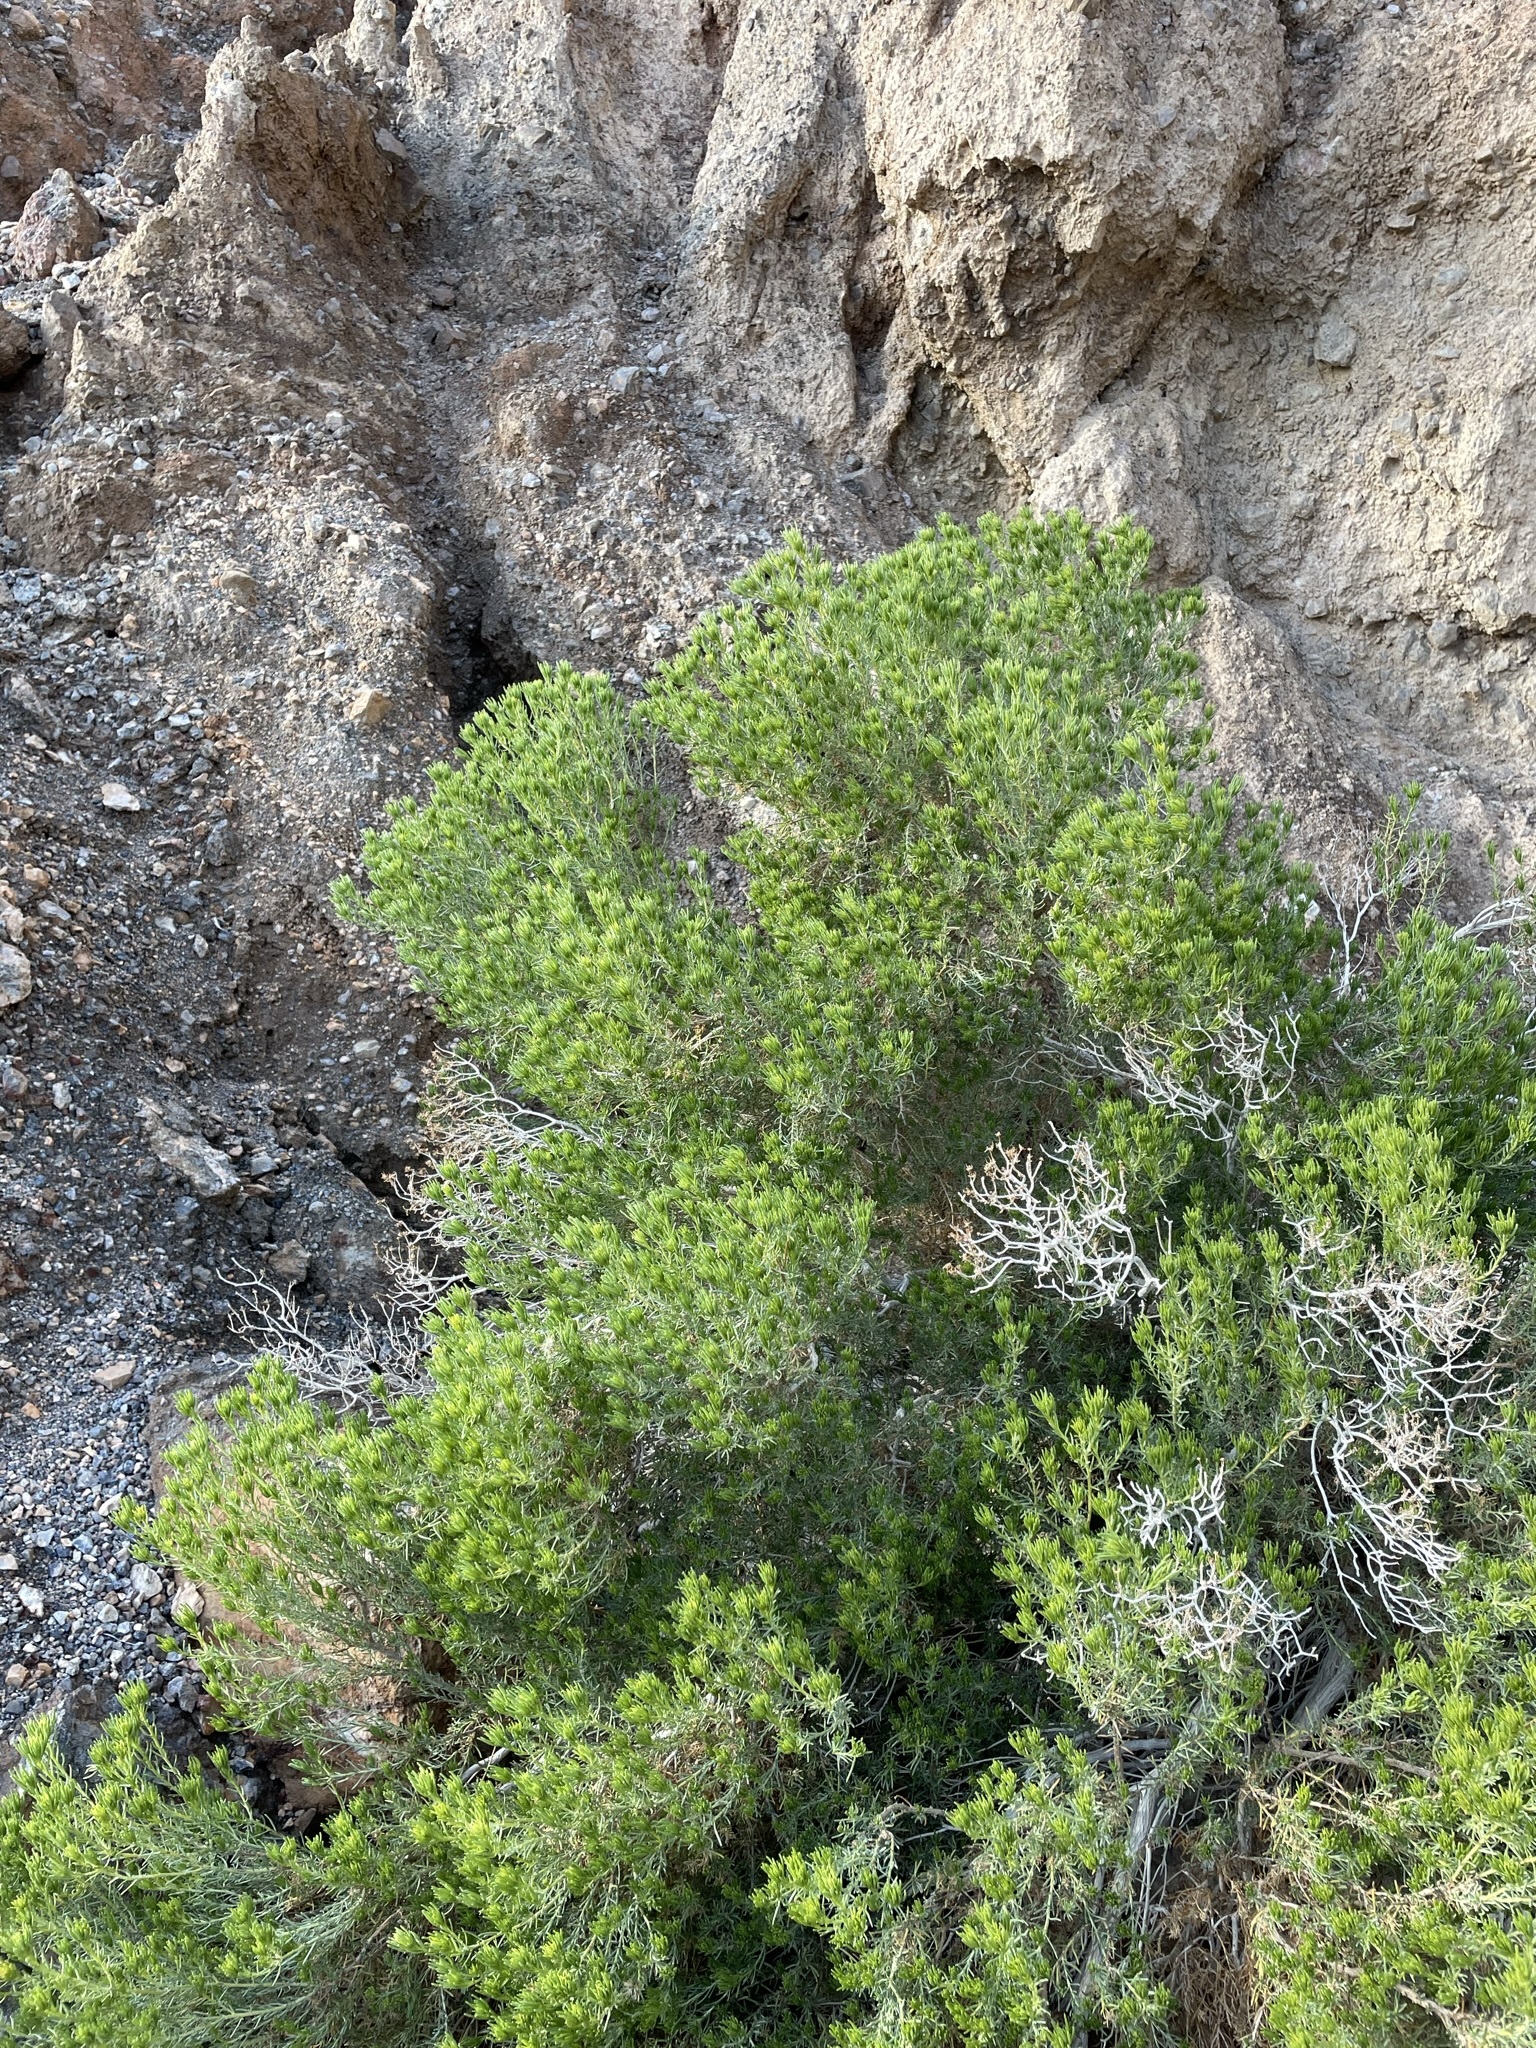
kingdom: Plantae
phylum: Tracheophyta
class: Magnoliopsida
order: Asterales
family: Asteraceae
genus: Peucephyllum
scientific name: Peucephyllum schottii
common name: Pygmy-cedar
